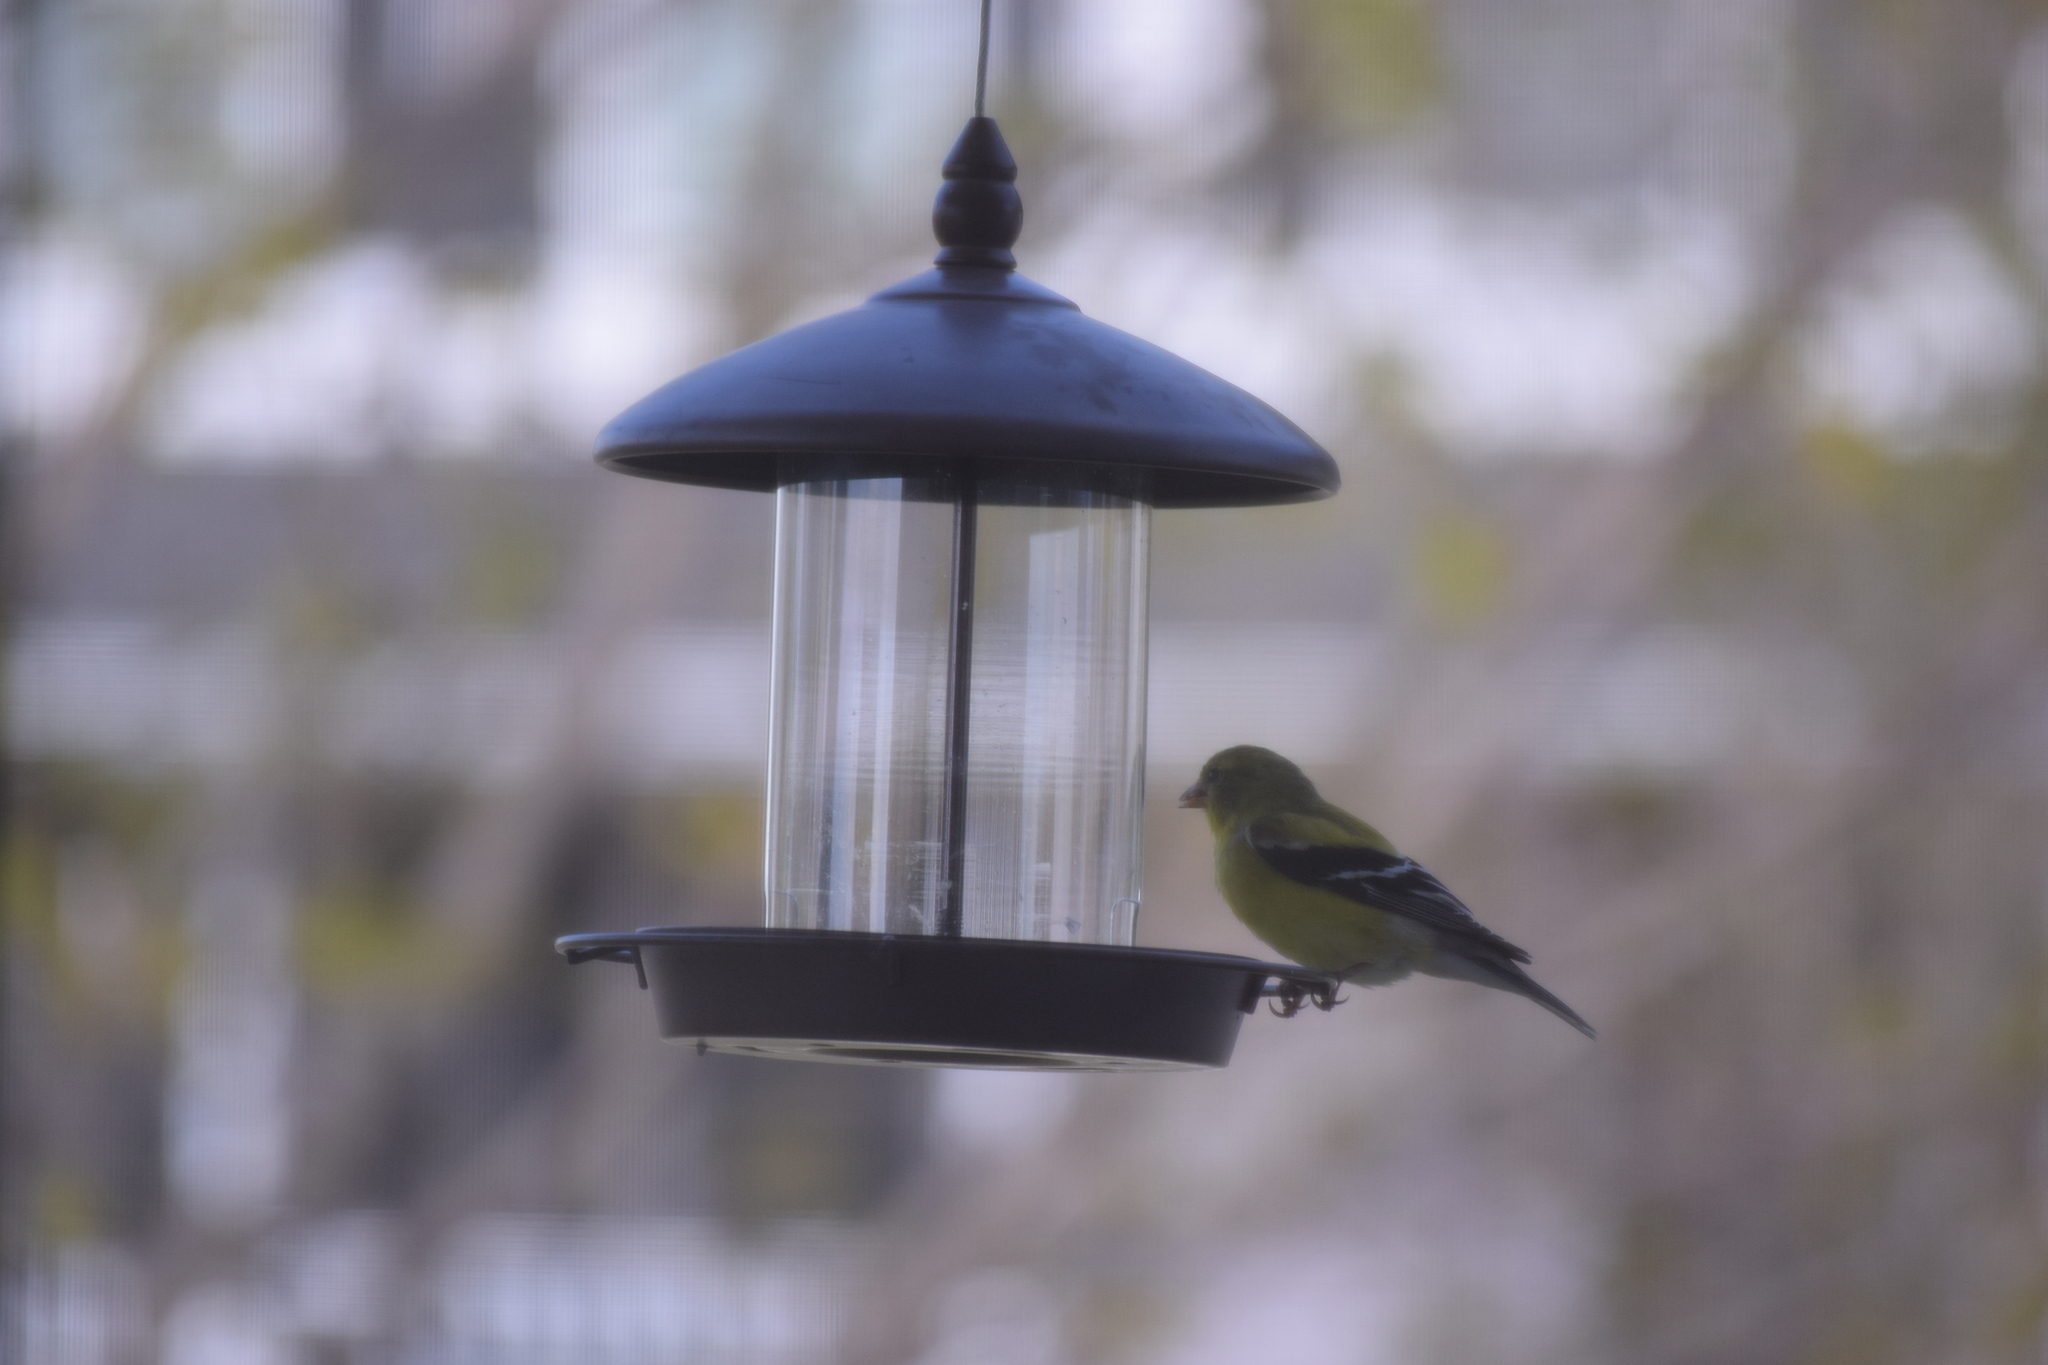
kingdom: Animalia
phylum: Chordata
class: Aves
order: Passeriformes
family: Fringillidae
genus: Spinus
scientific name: Spinus tristis
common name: American goldfinch
